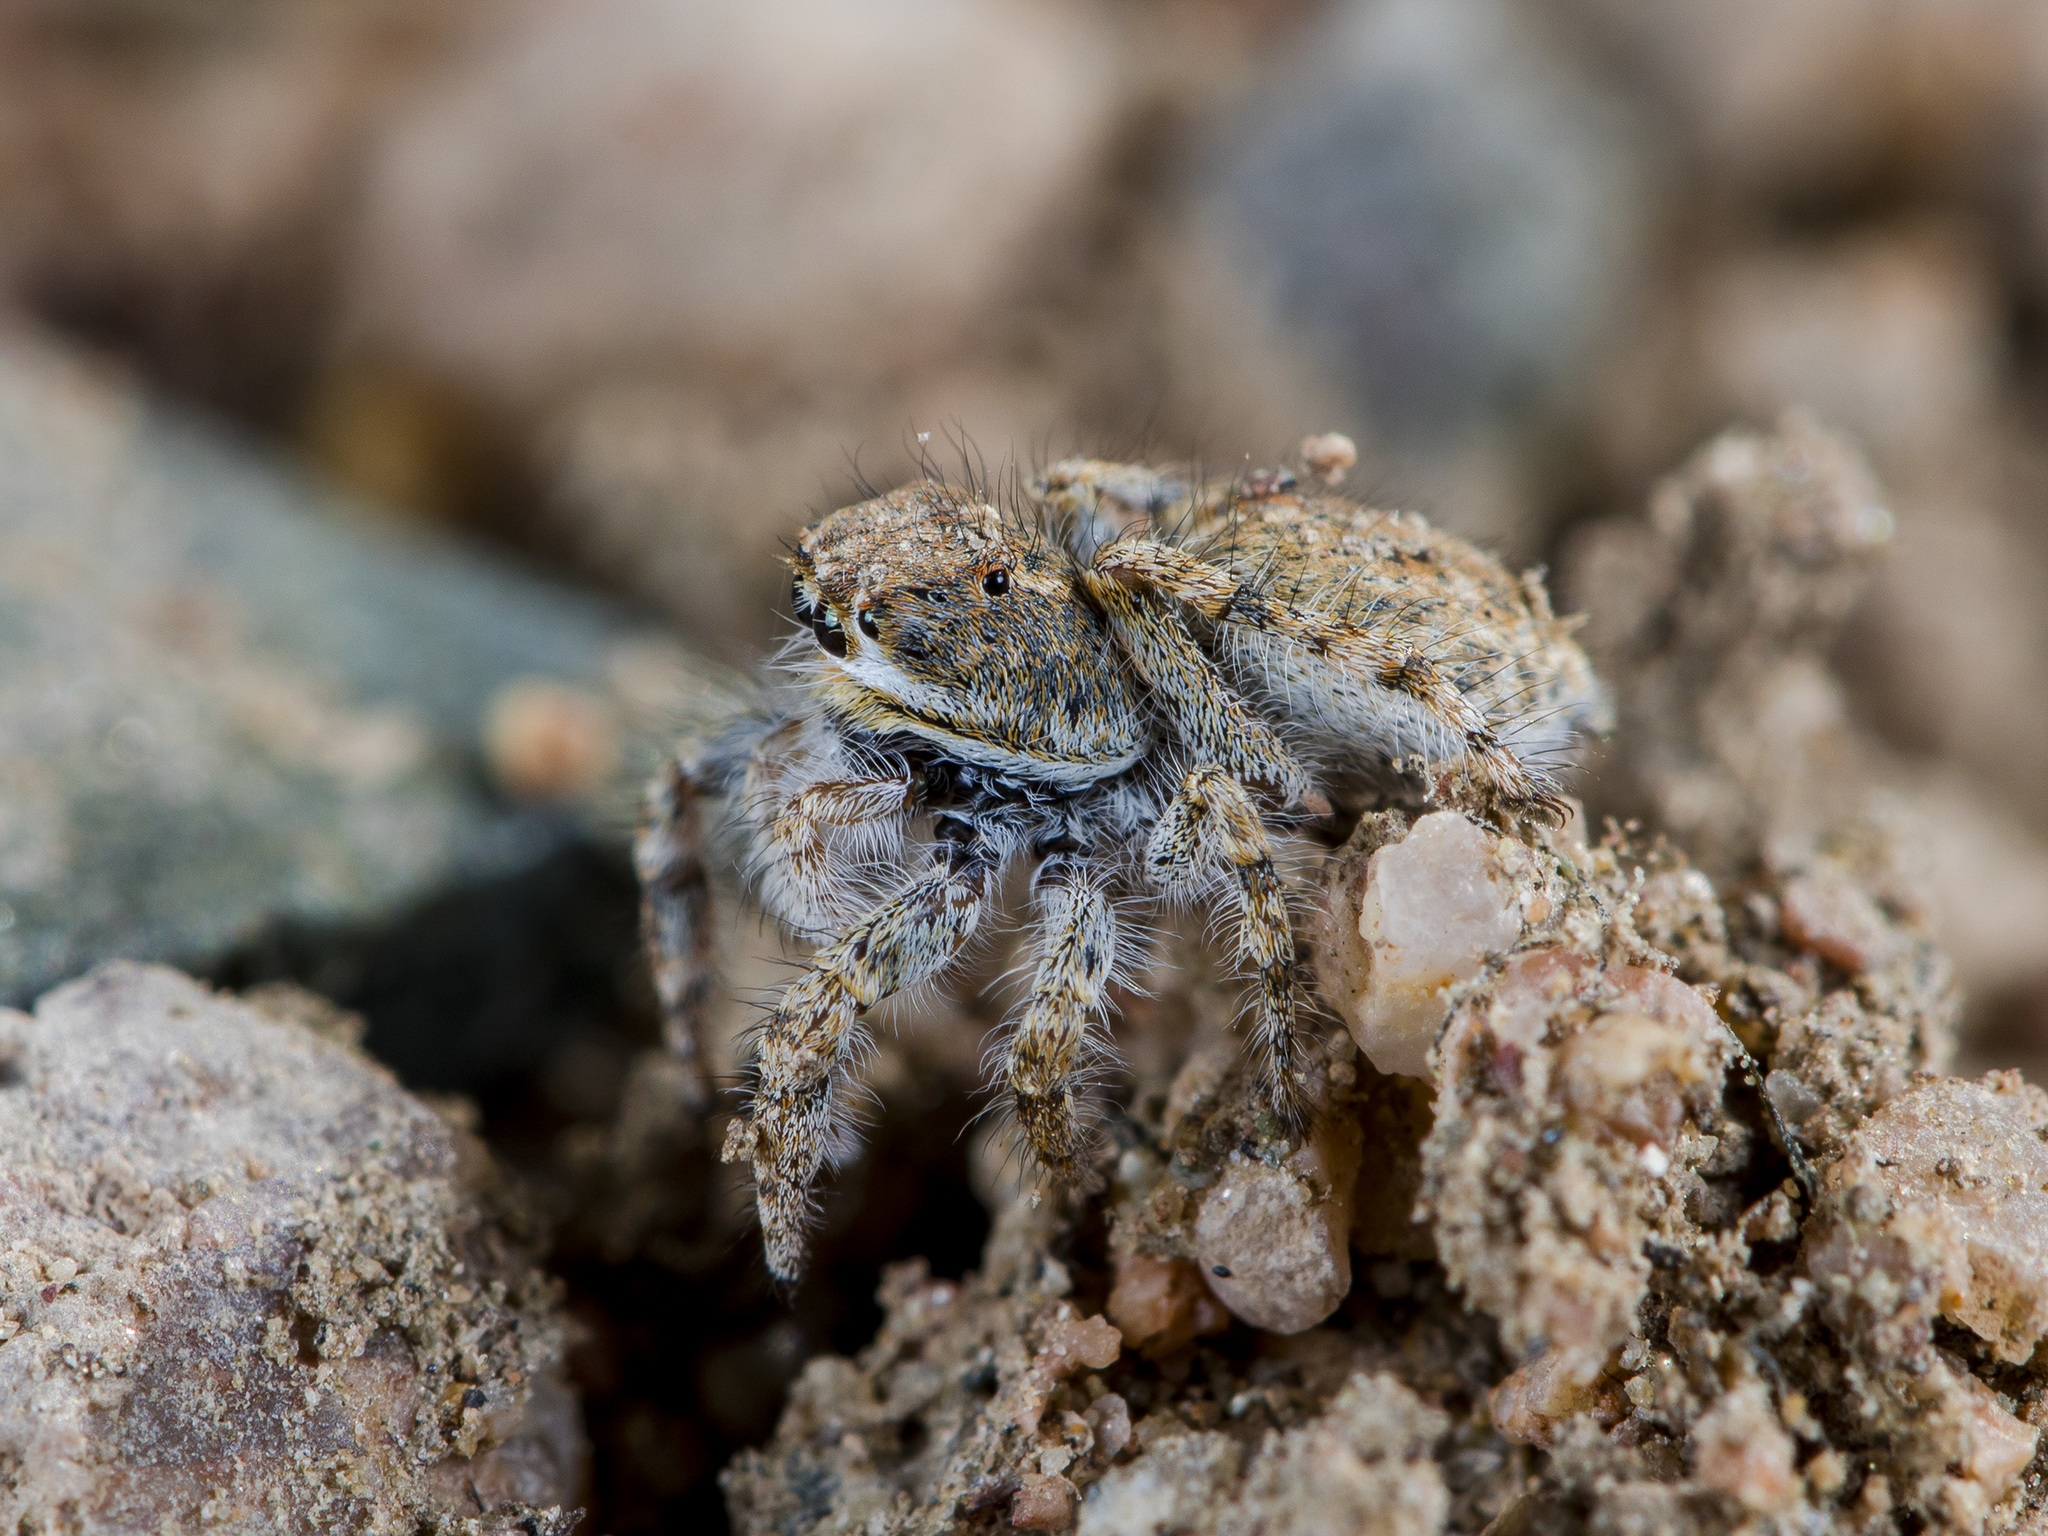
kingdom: Animalia
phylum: Arthropoda
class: Arachnida
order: Araneae
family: Salticidae
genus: Yllenus
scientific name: Yllenus charynensis
